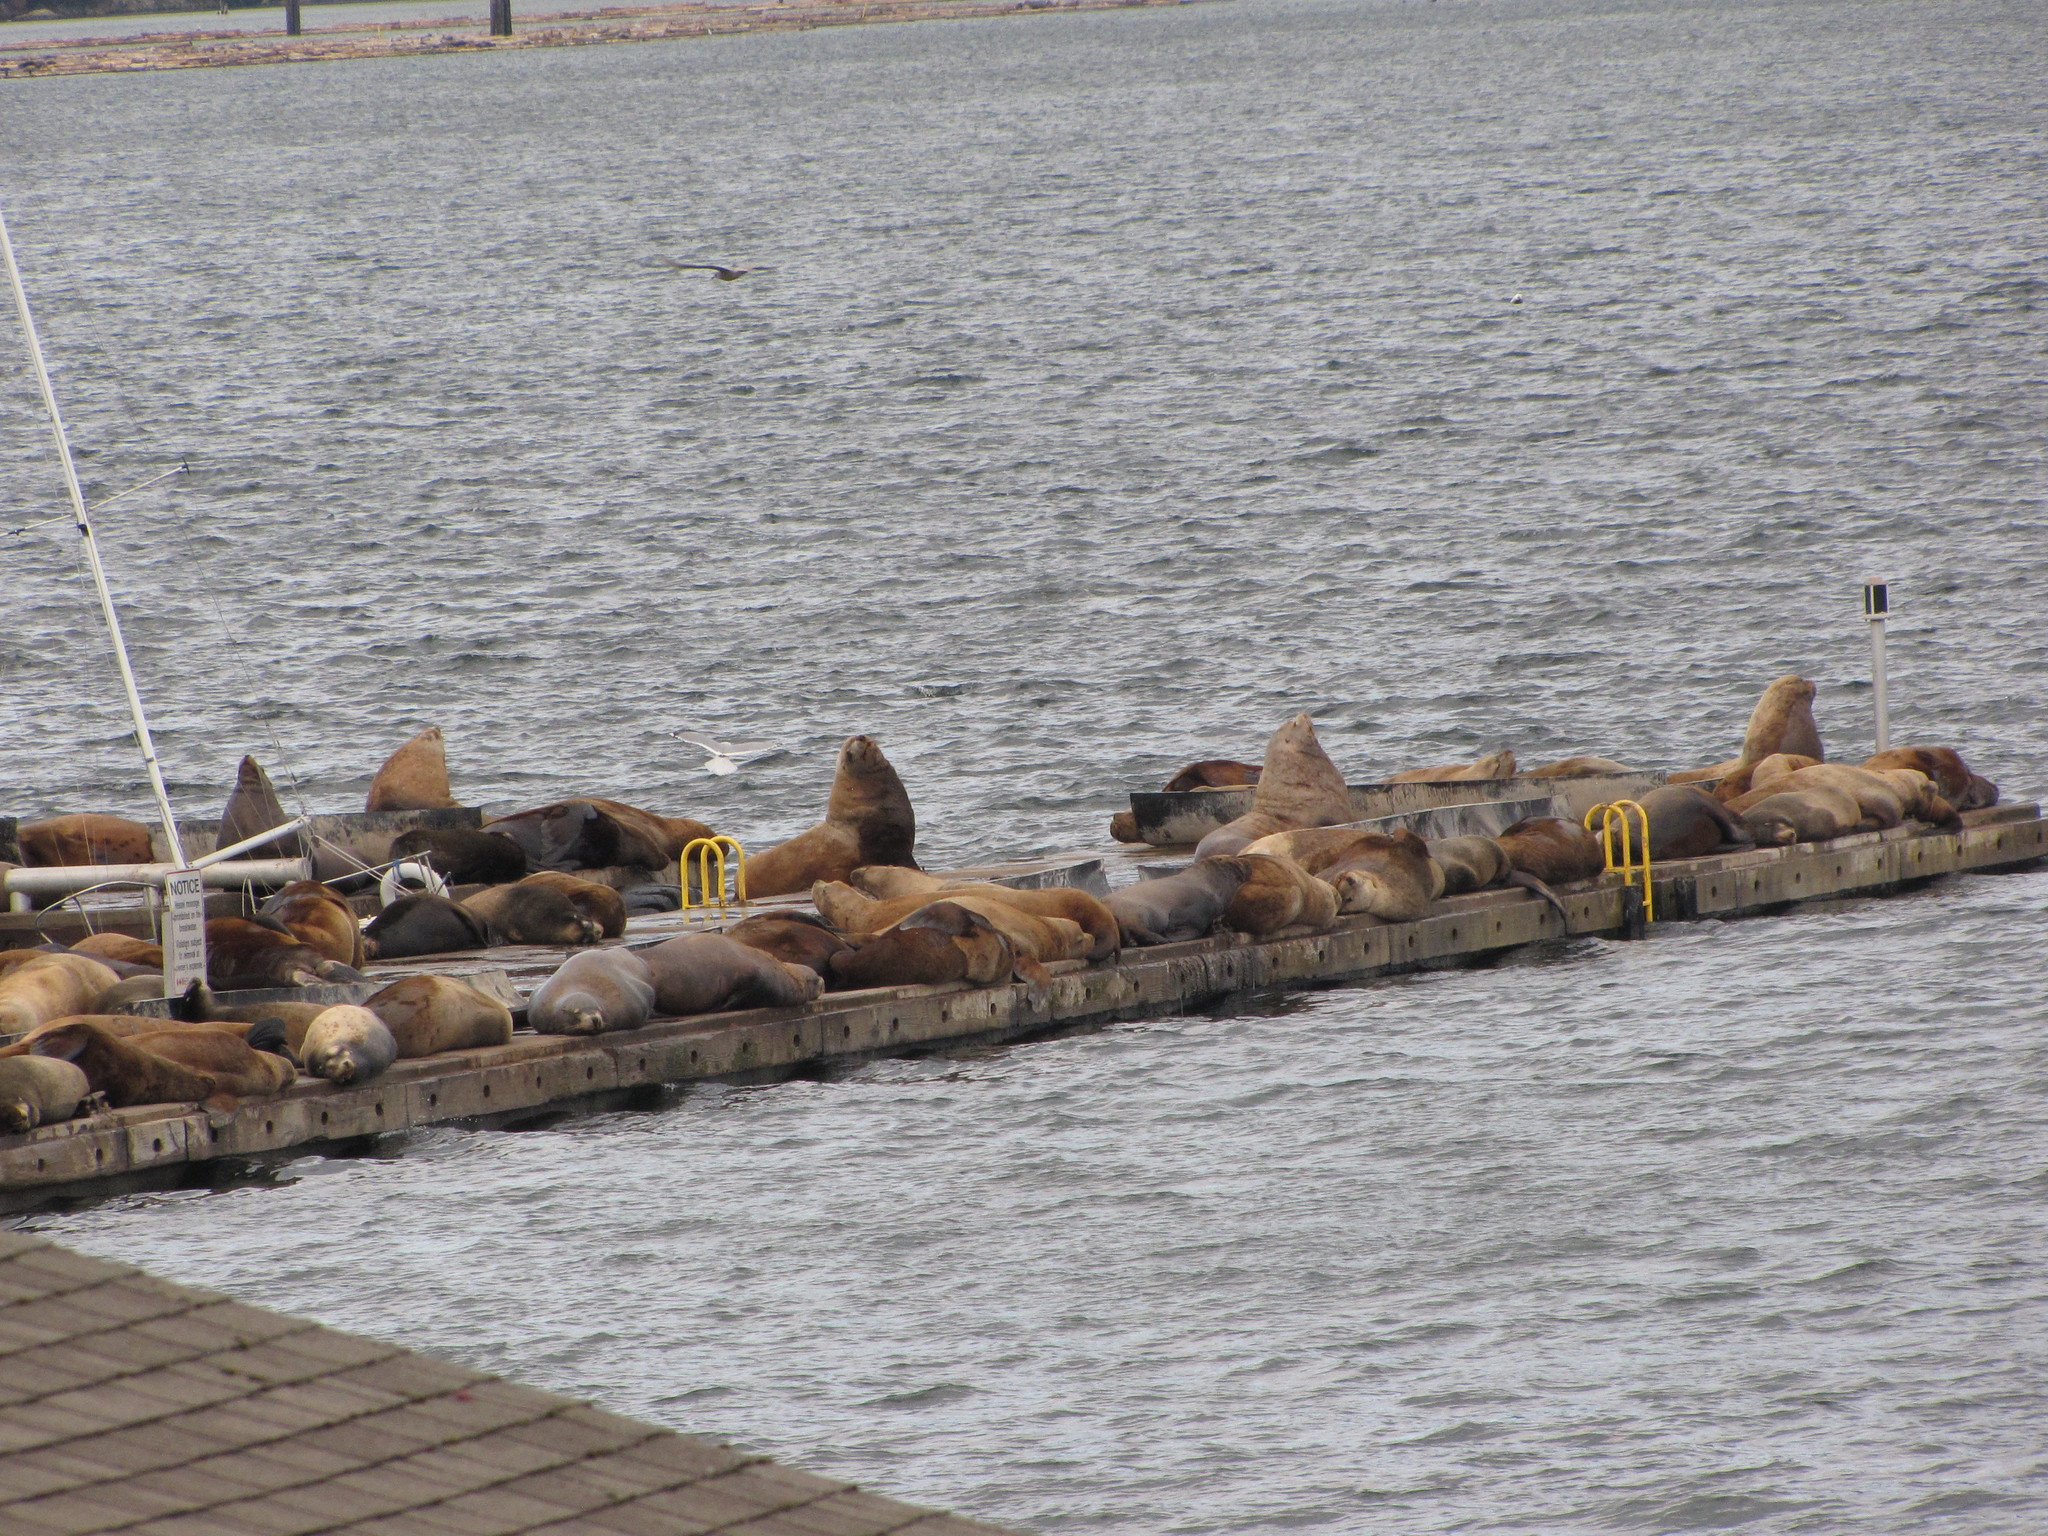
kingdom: Animalia
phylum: Chordata
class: Mammalia
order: Carnivora
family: Otariidae
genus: Zalophus
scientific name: Zalophus californianus
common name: California sea lion
